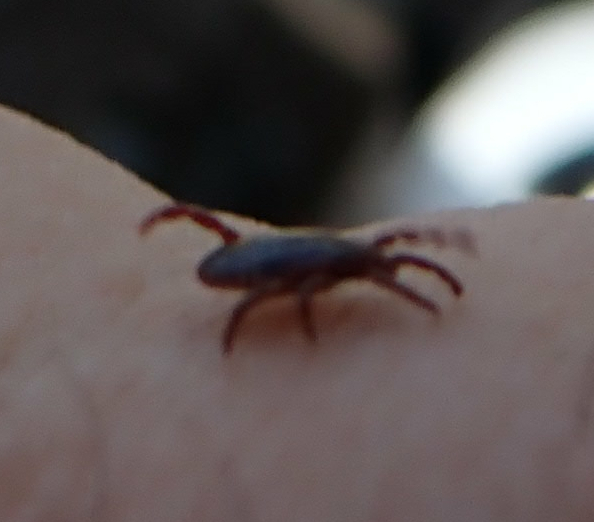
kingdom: Animalia
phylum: Arthropoda
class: Arachnida
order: Ixodida
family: Ixodidae
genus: Dermacentor
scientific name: Dermacentor variabilis
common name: American dog tick
